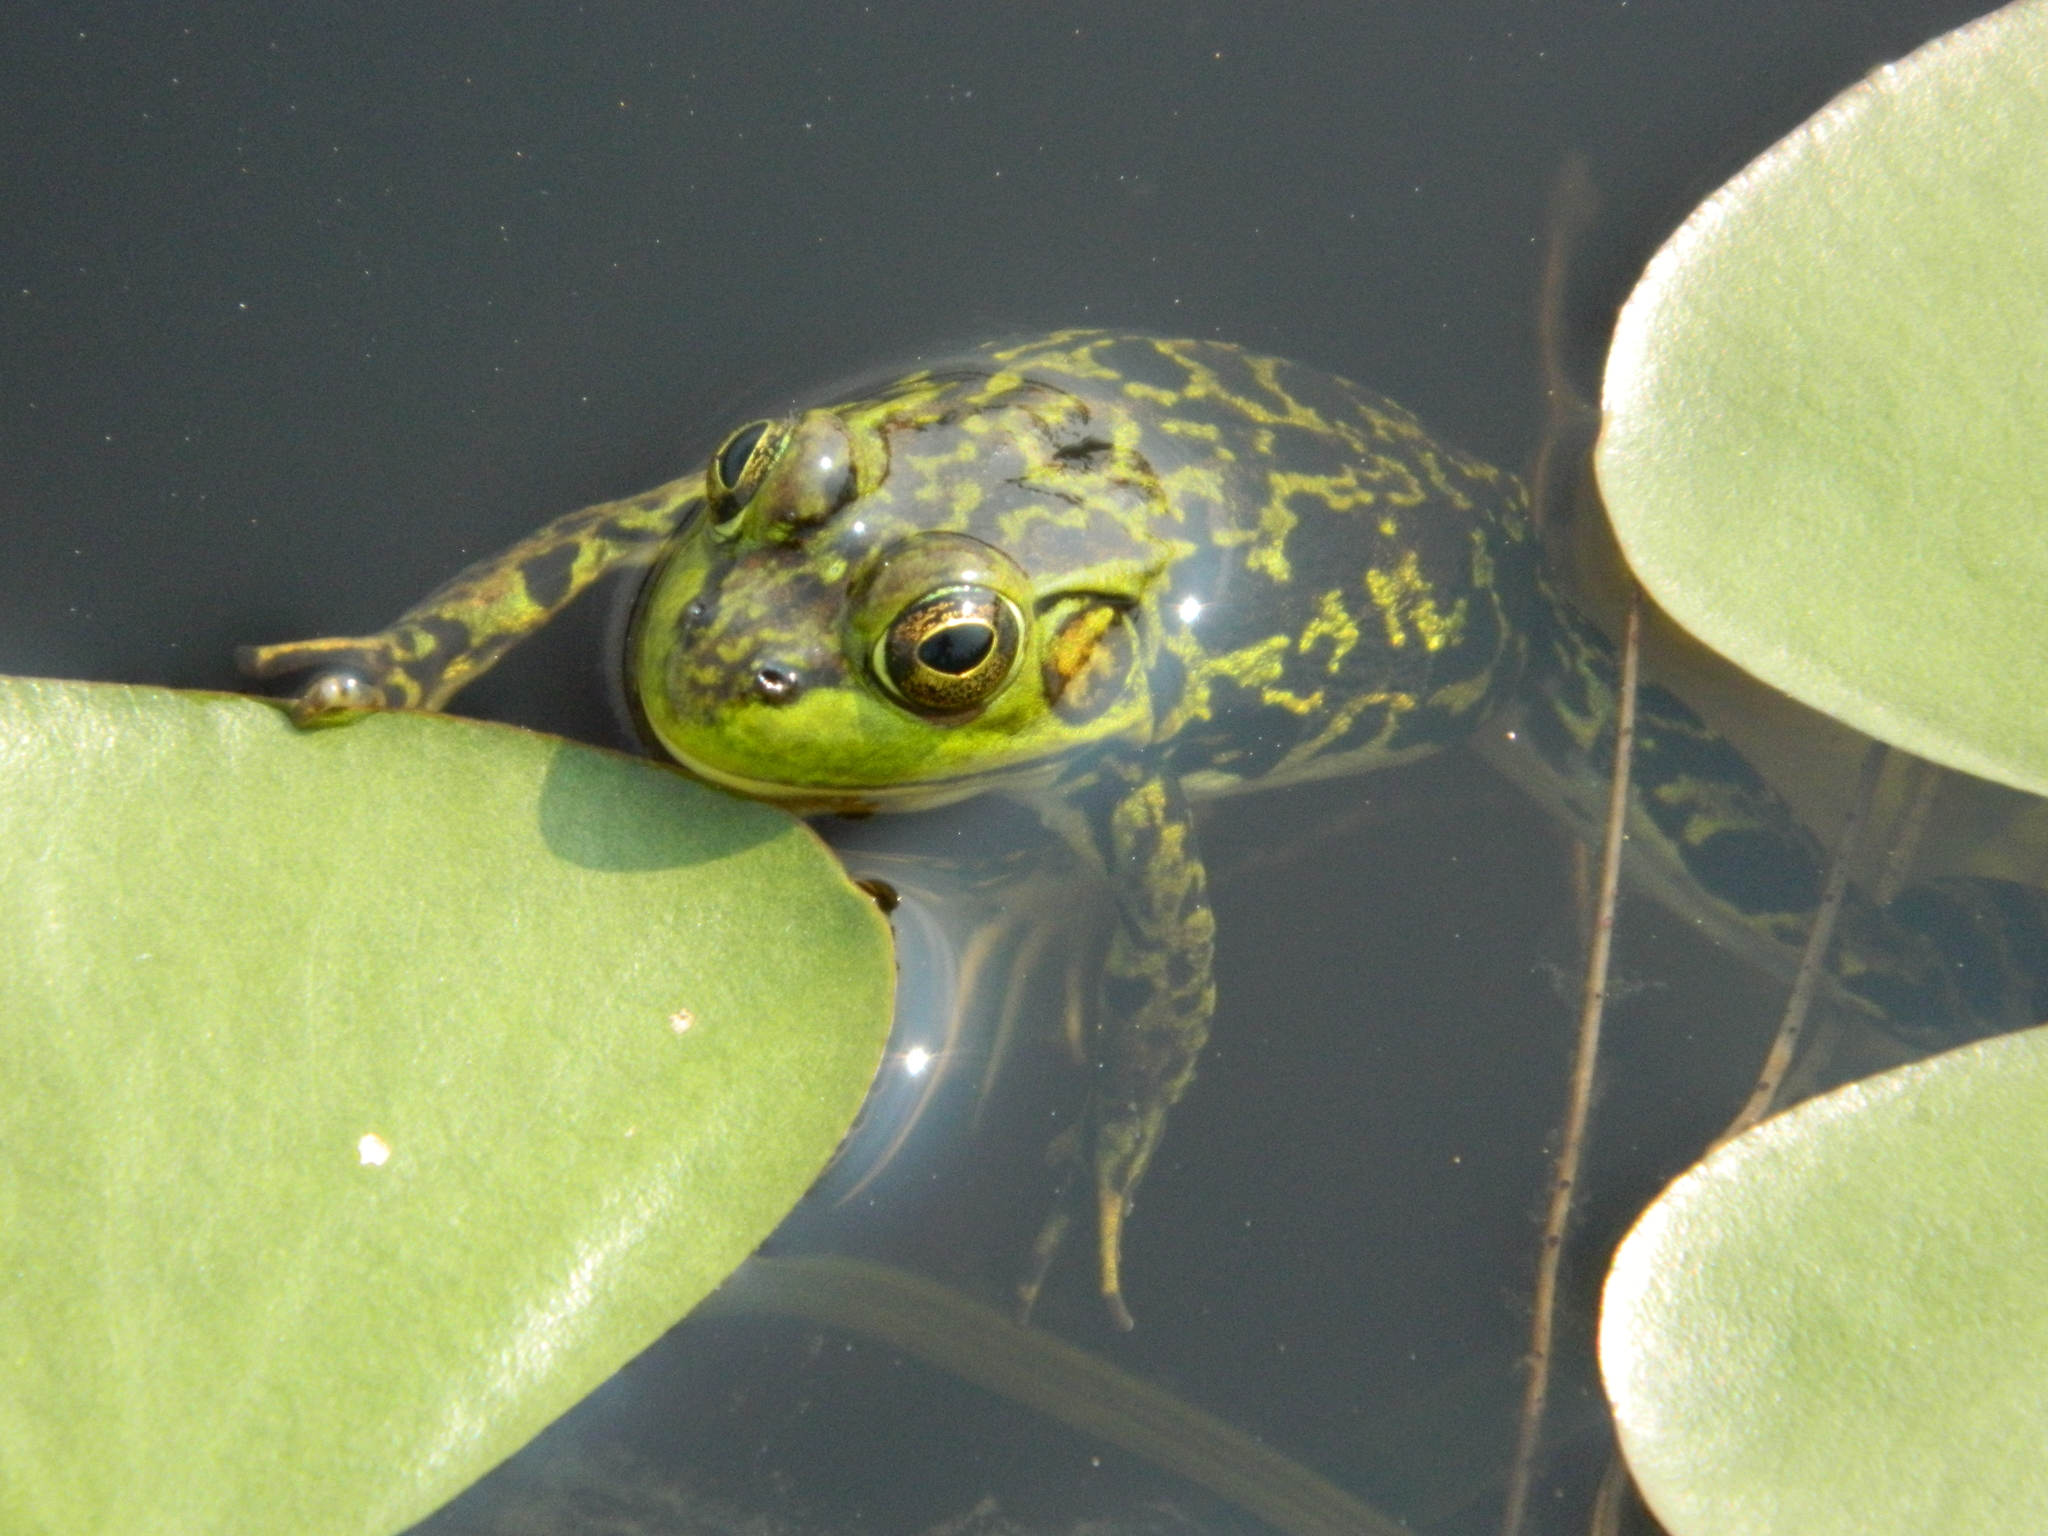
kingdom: Animalia
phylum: Chordata
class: Amphibia
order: Anura
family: Ranidae
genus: Lithobates
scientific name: Lithobates septentrionalis
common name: Mink frog
